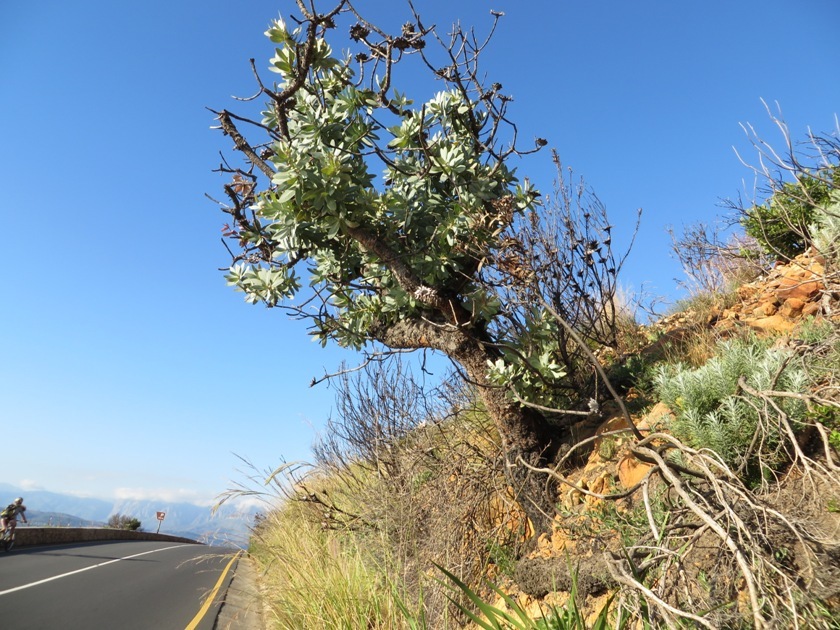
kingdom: Plantae
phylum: Tracheophyta
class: Magnoliopsida
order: Proteales
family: Proteaceae
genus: Protea
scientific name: Protea nitida
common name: Tree protea
